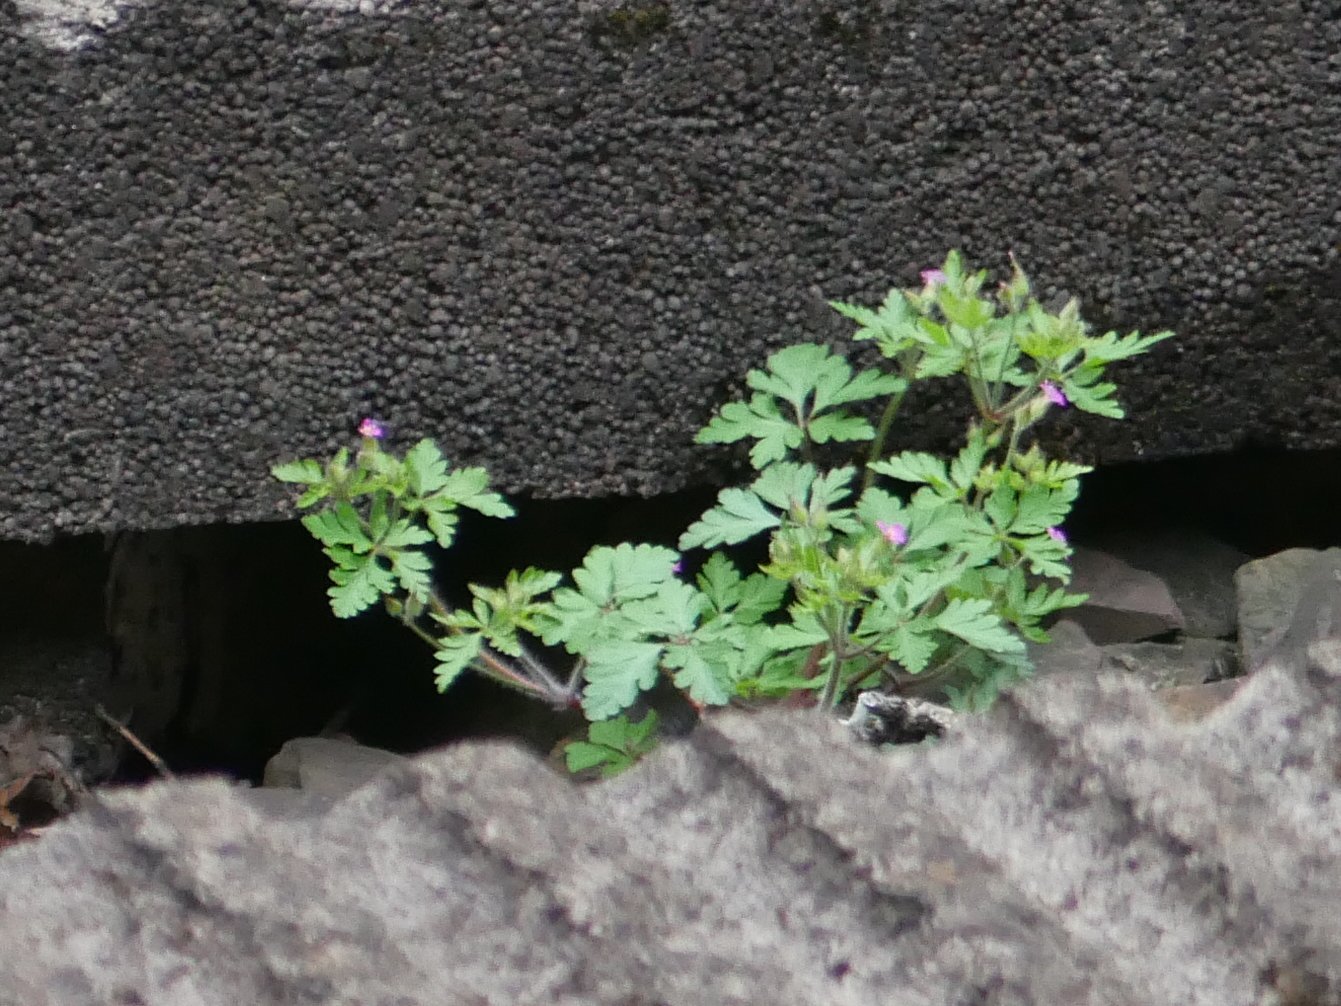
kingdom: Plantae
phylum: Tracheophyta
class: Magnoliopsida
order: Geraniales
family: Geraniaceae
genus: Geranium
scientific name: Geranium robertianum
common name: Herb-robert
